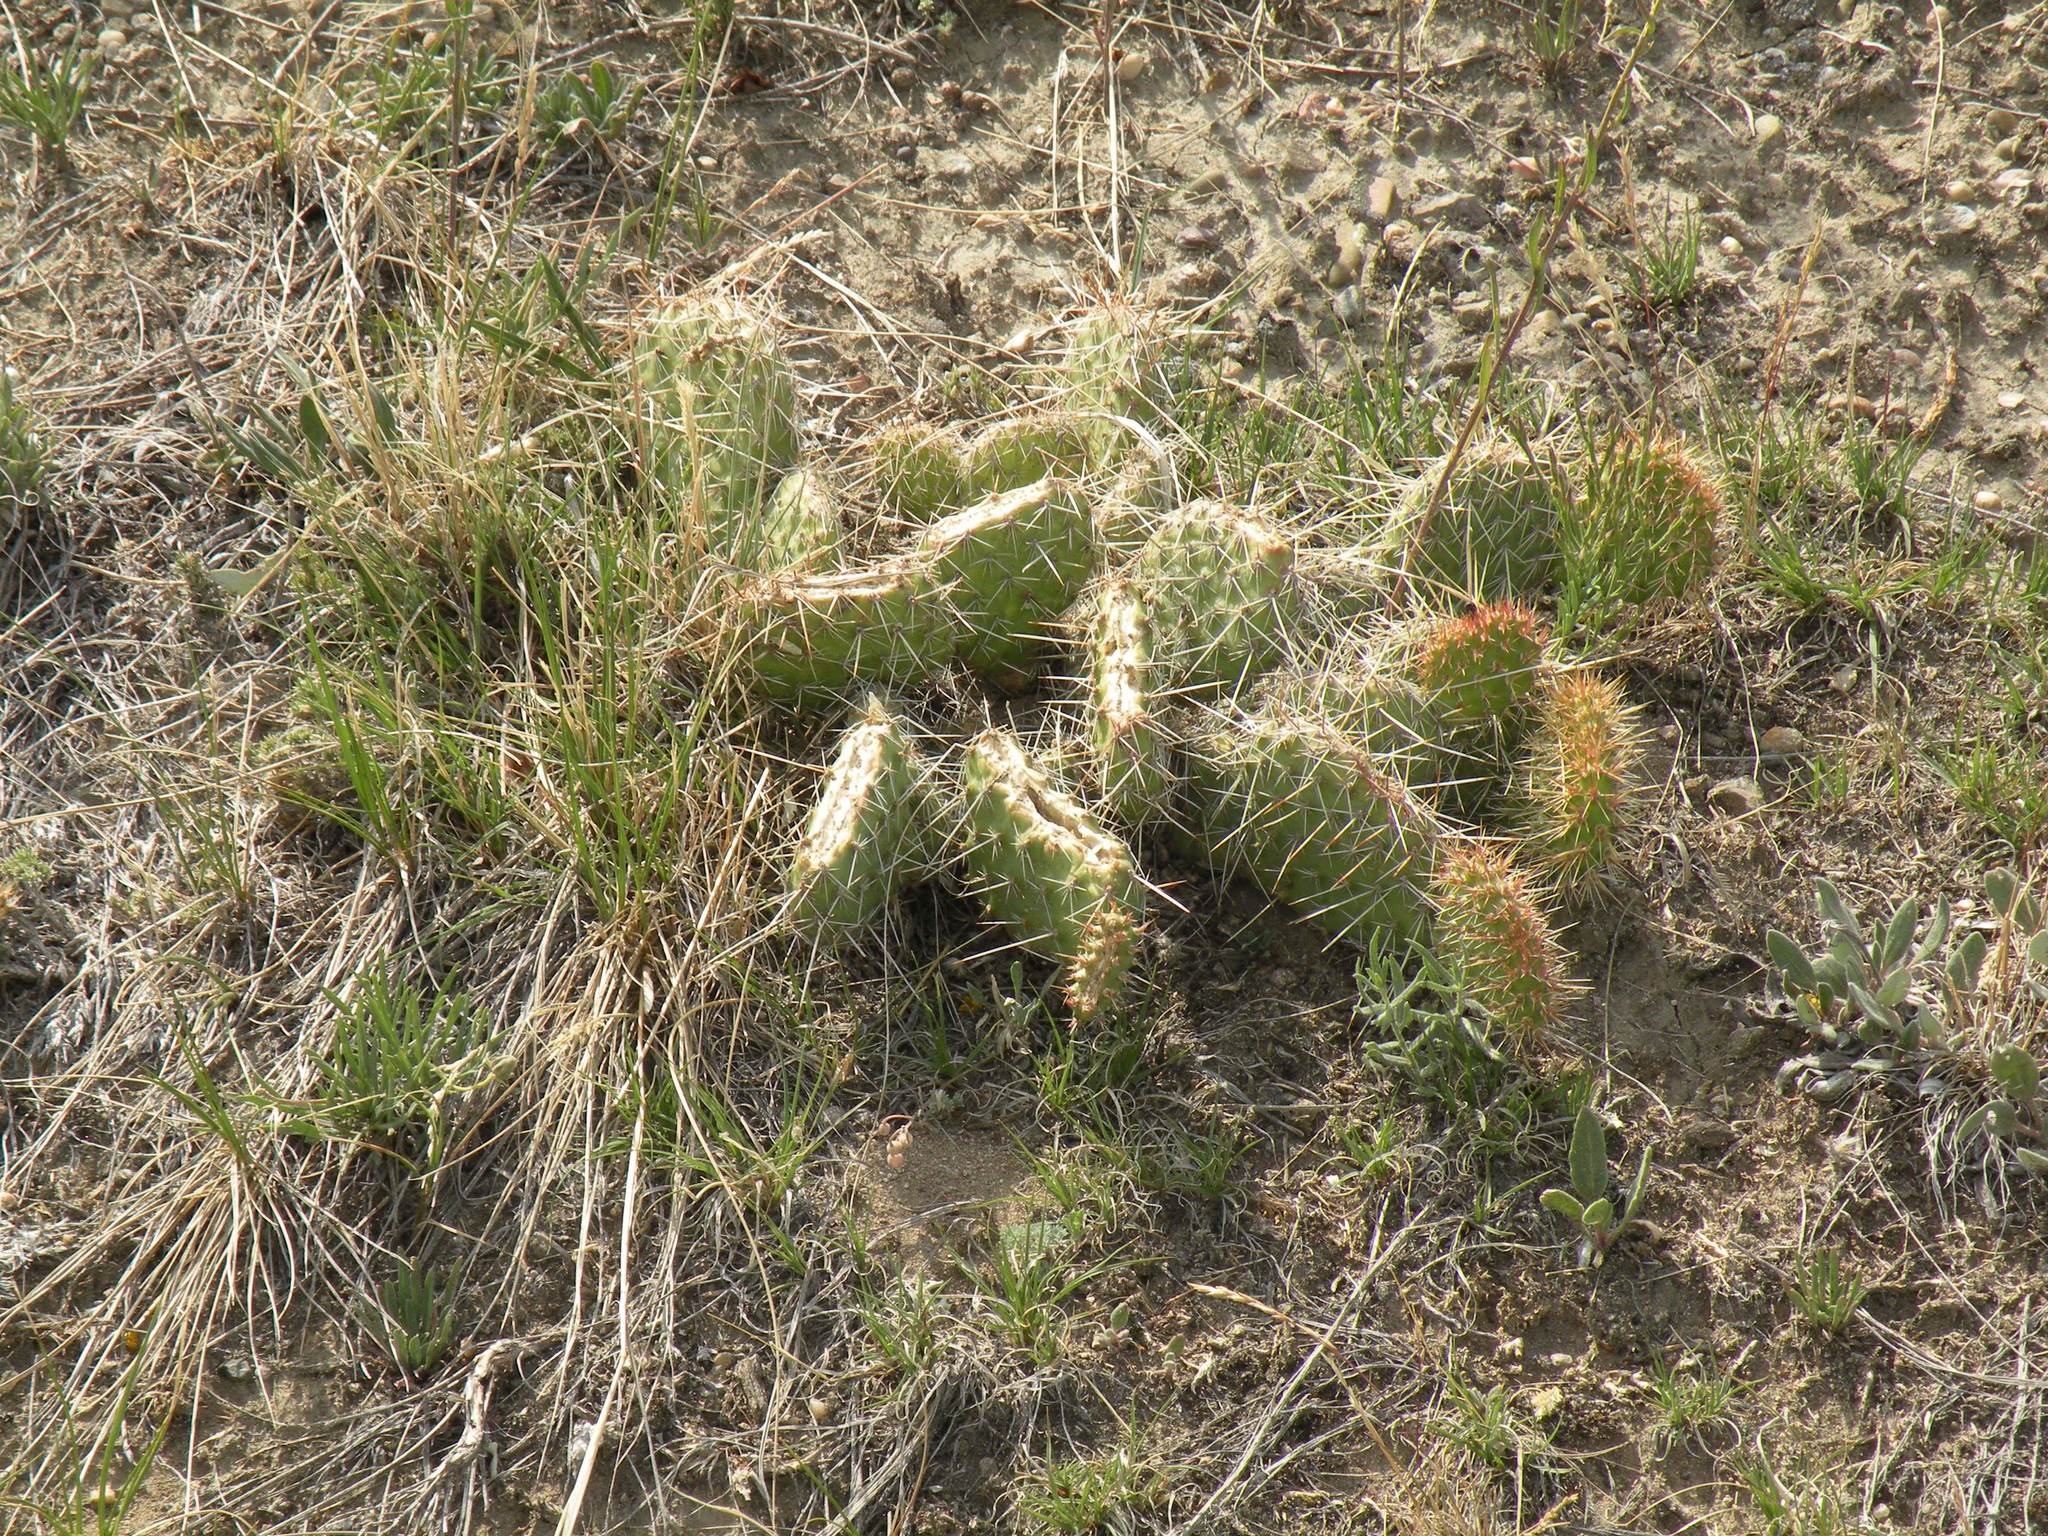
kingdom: Plantae
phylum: Tracheophyta
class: Magnoliopsida
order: Caryophyllales
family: Cactaceae
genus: Opuntia
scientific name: Opuntia polyacantha
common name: Plains prickly-pear
